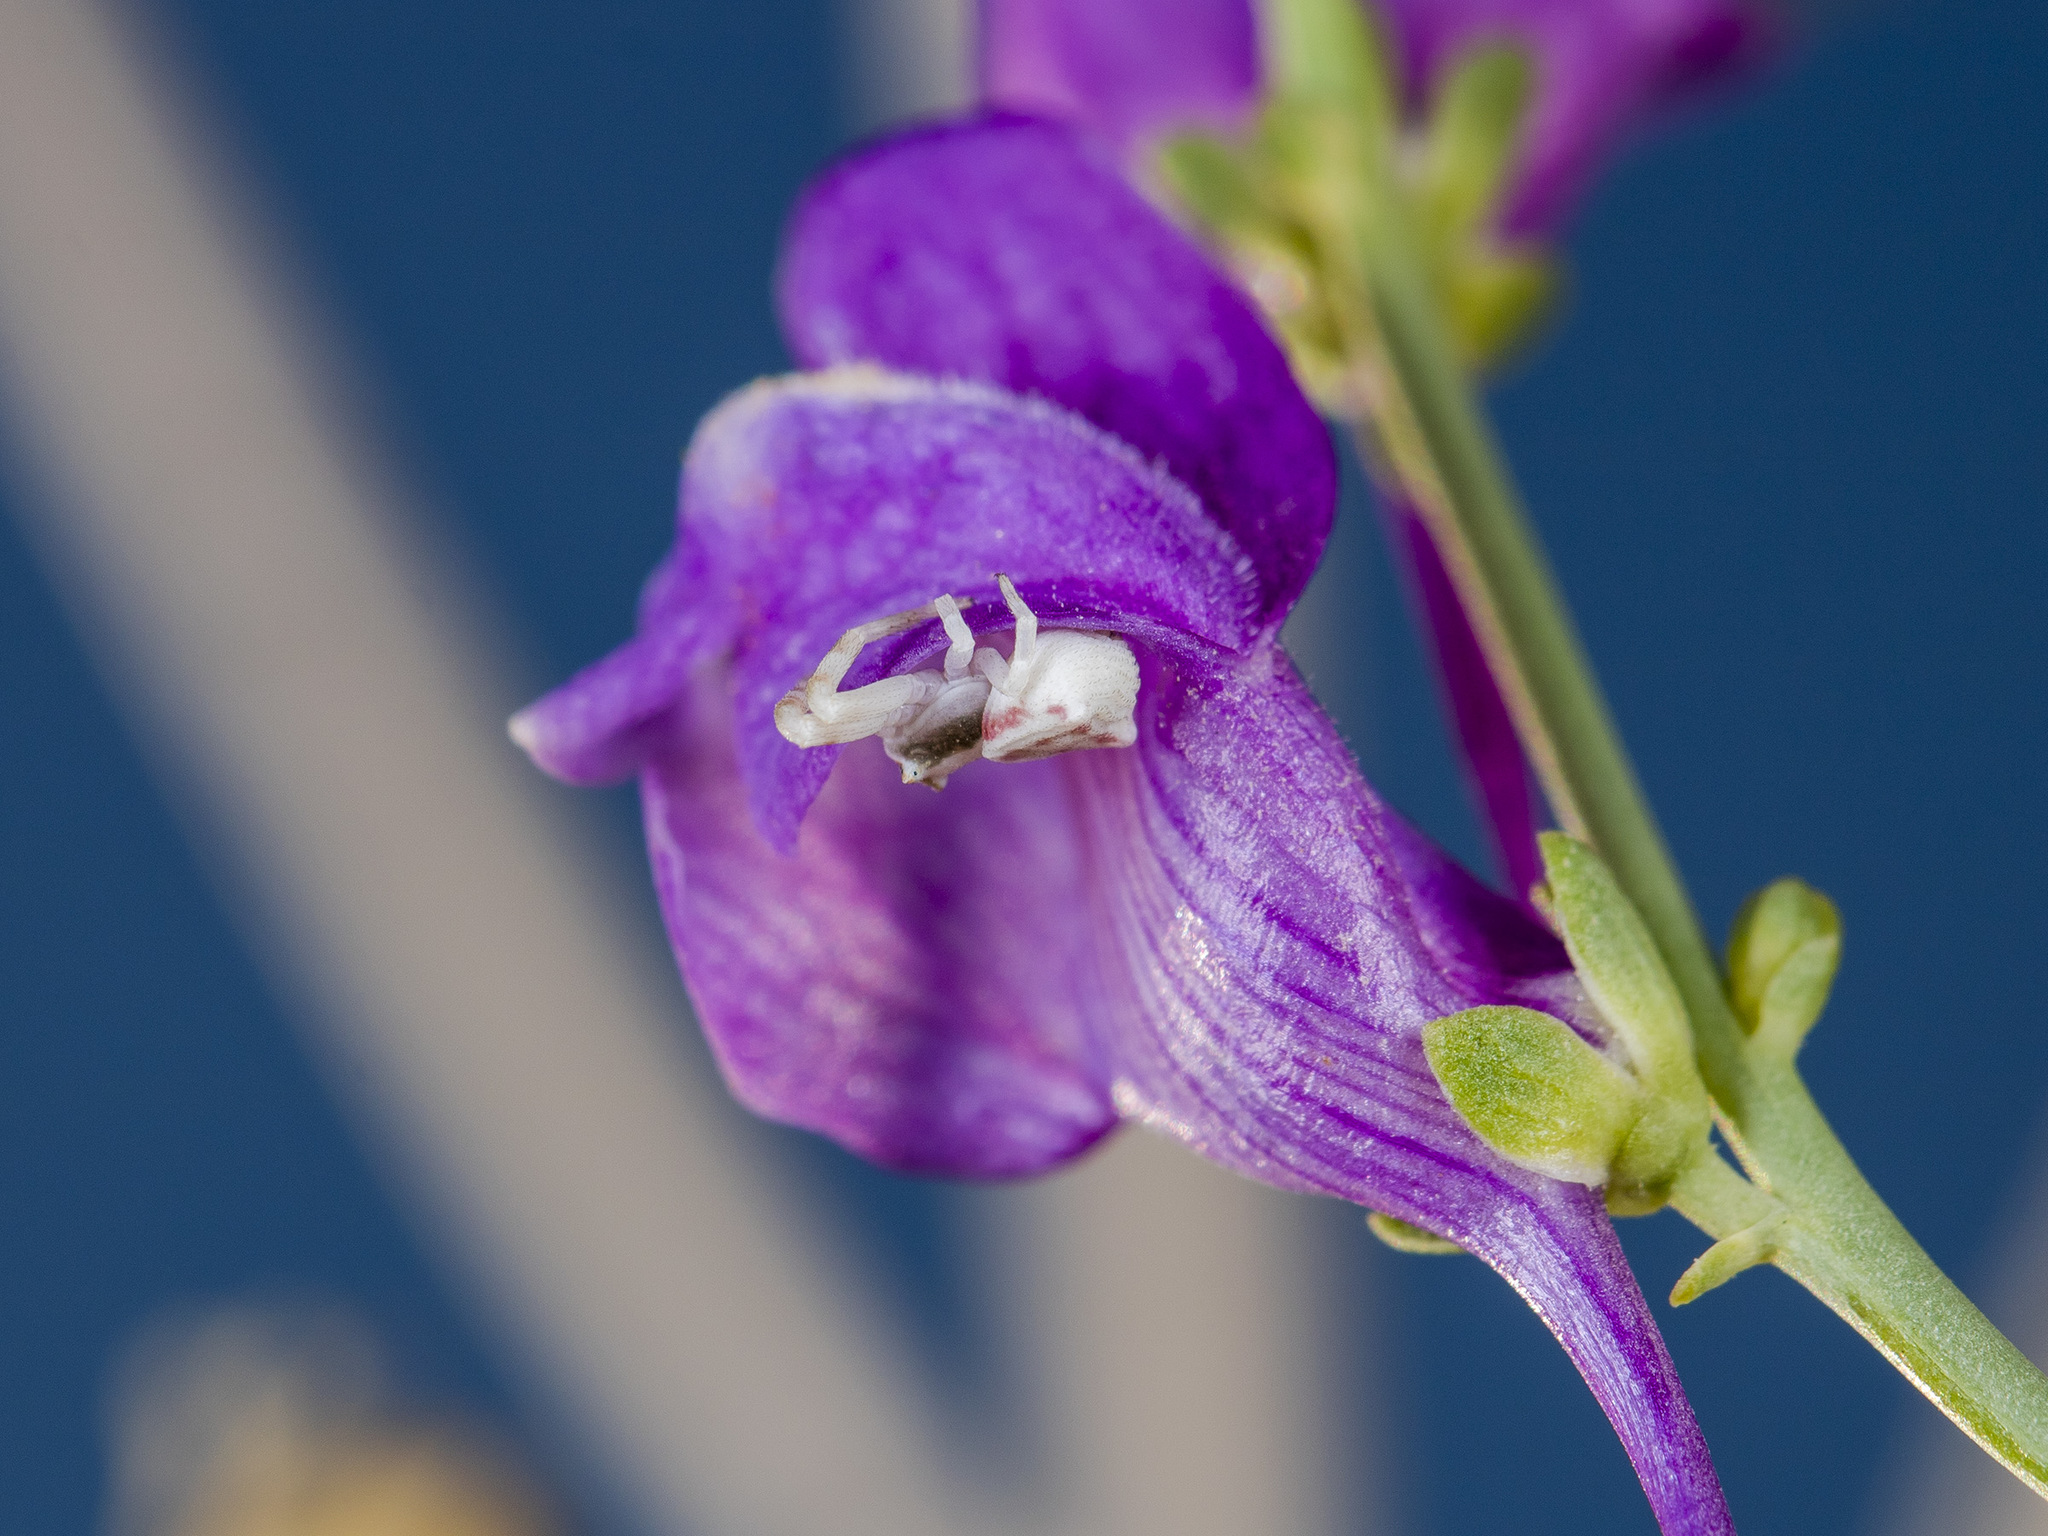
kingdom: Animalia
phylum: Arthropoda
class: Arachnida
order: Araneae
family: Thomisidae
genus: Thomisus
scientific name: Thomisus onustus
